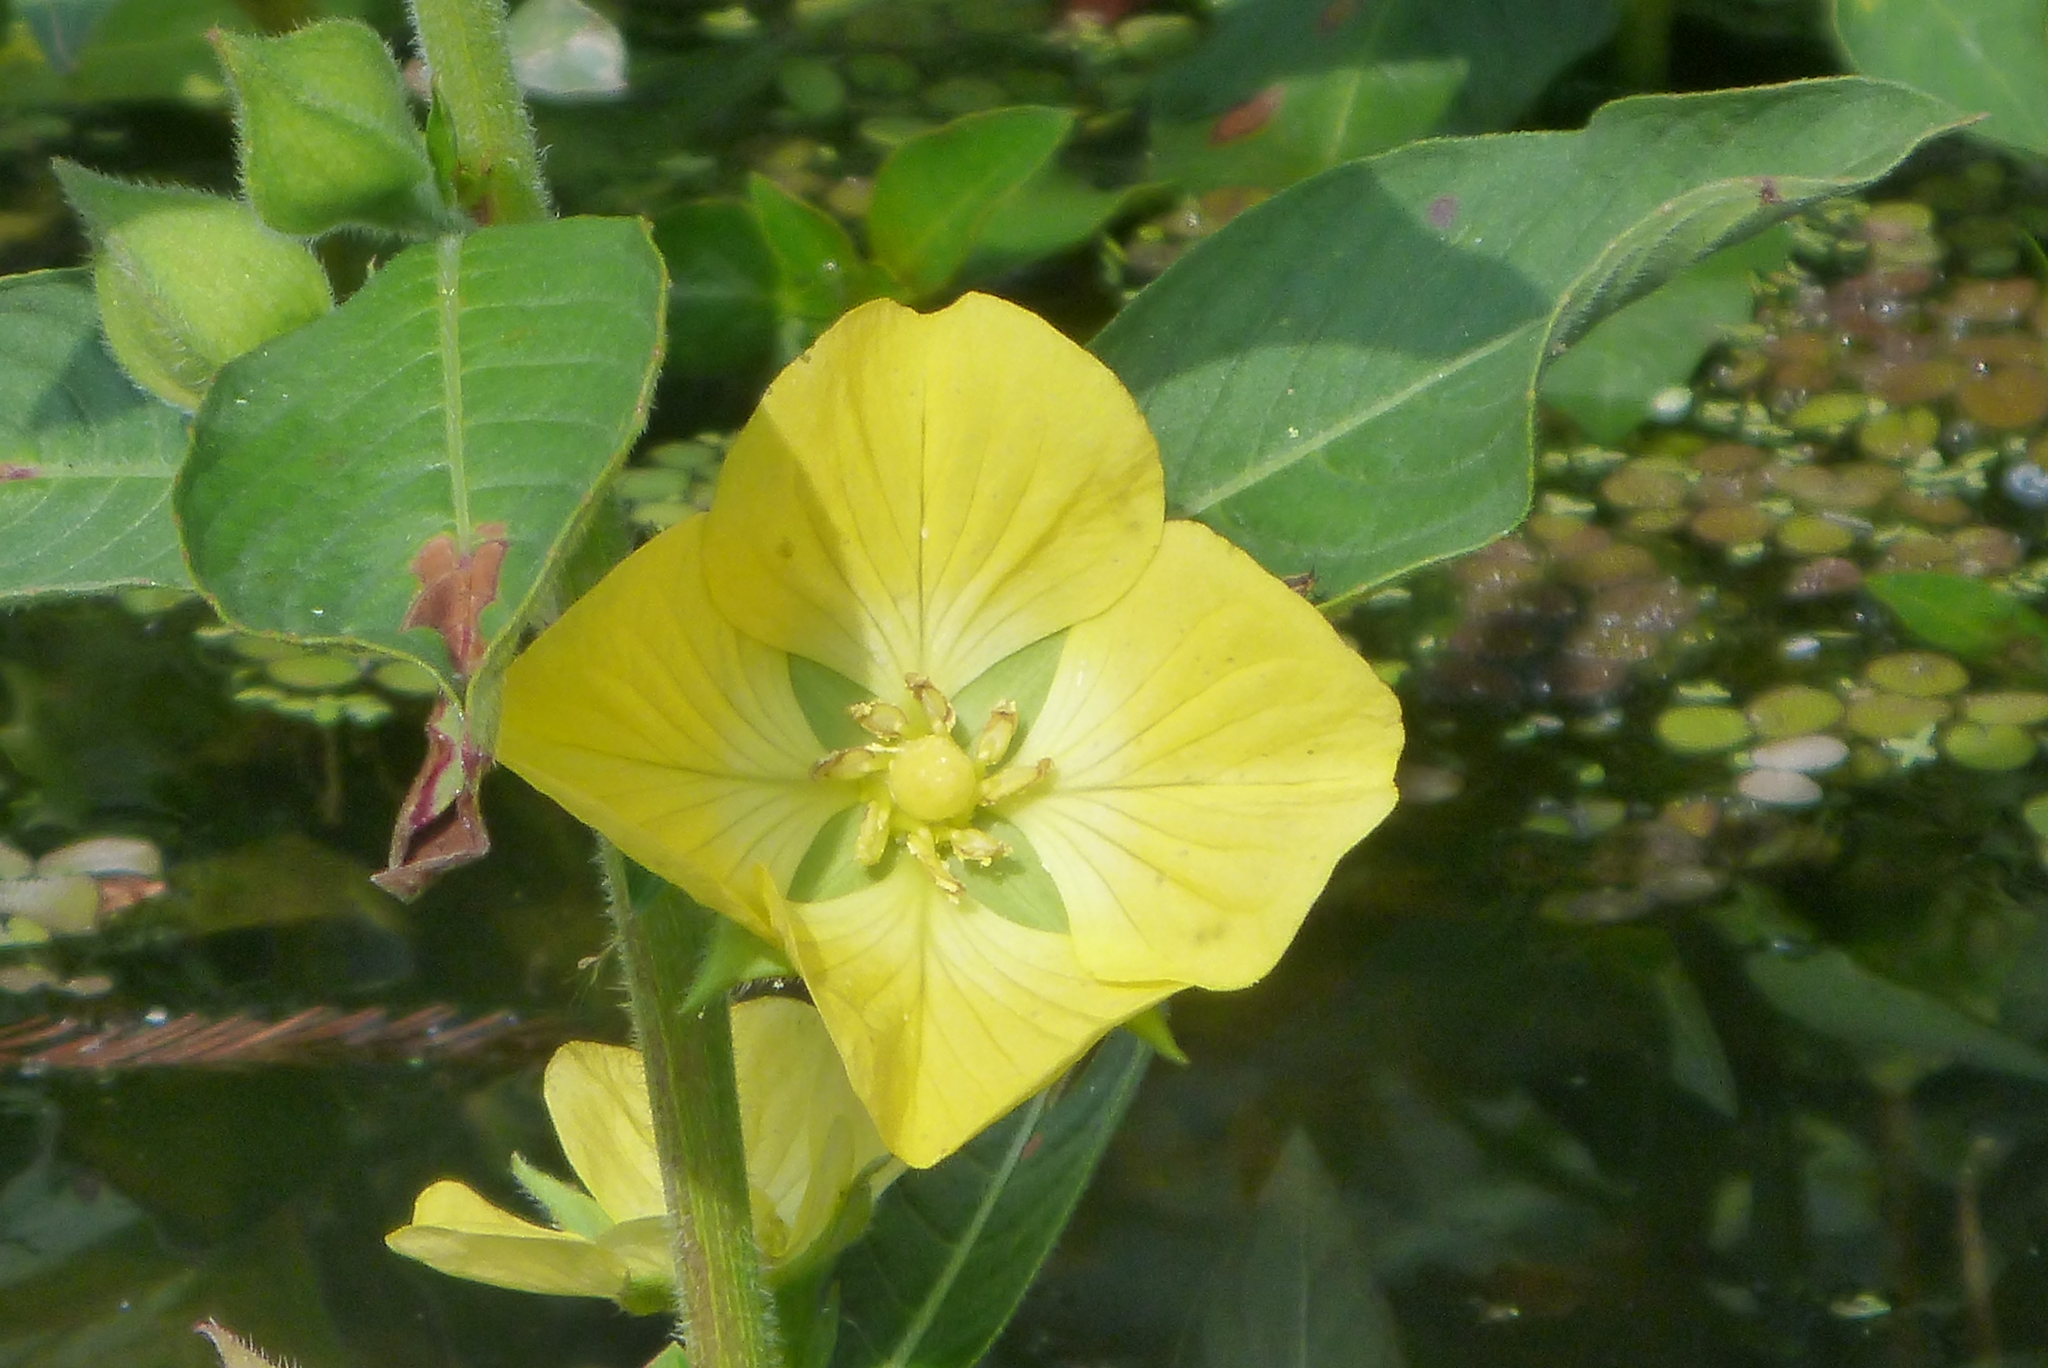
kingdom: Plantae
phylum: Tracheophyta
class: Magnoliopsida
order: Myrtales
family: Onagraceae
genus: Ludwigia
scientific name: Ludwigia peruviana
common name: Peruvian primrose-willow
